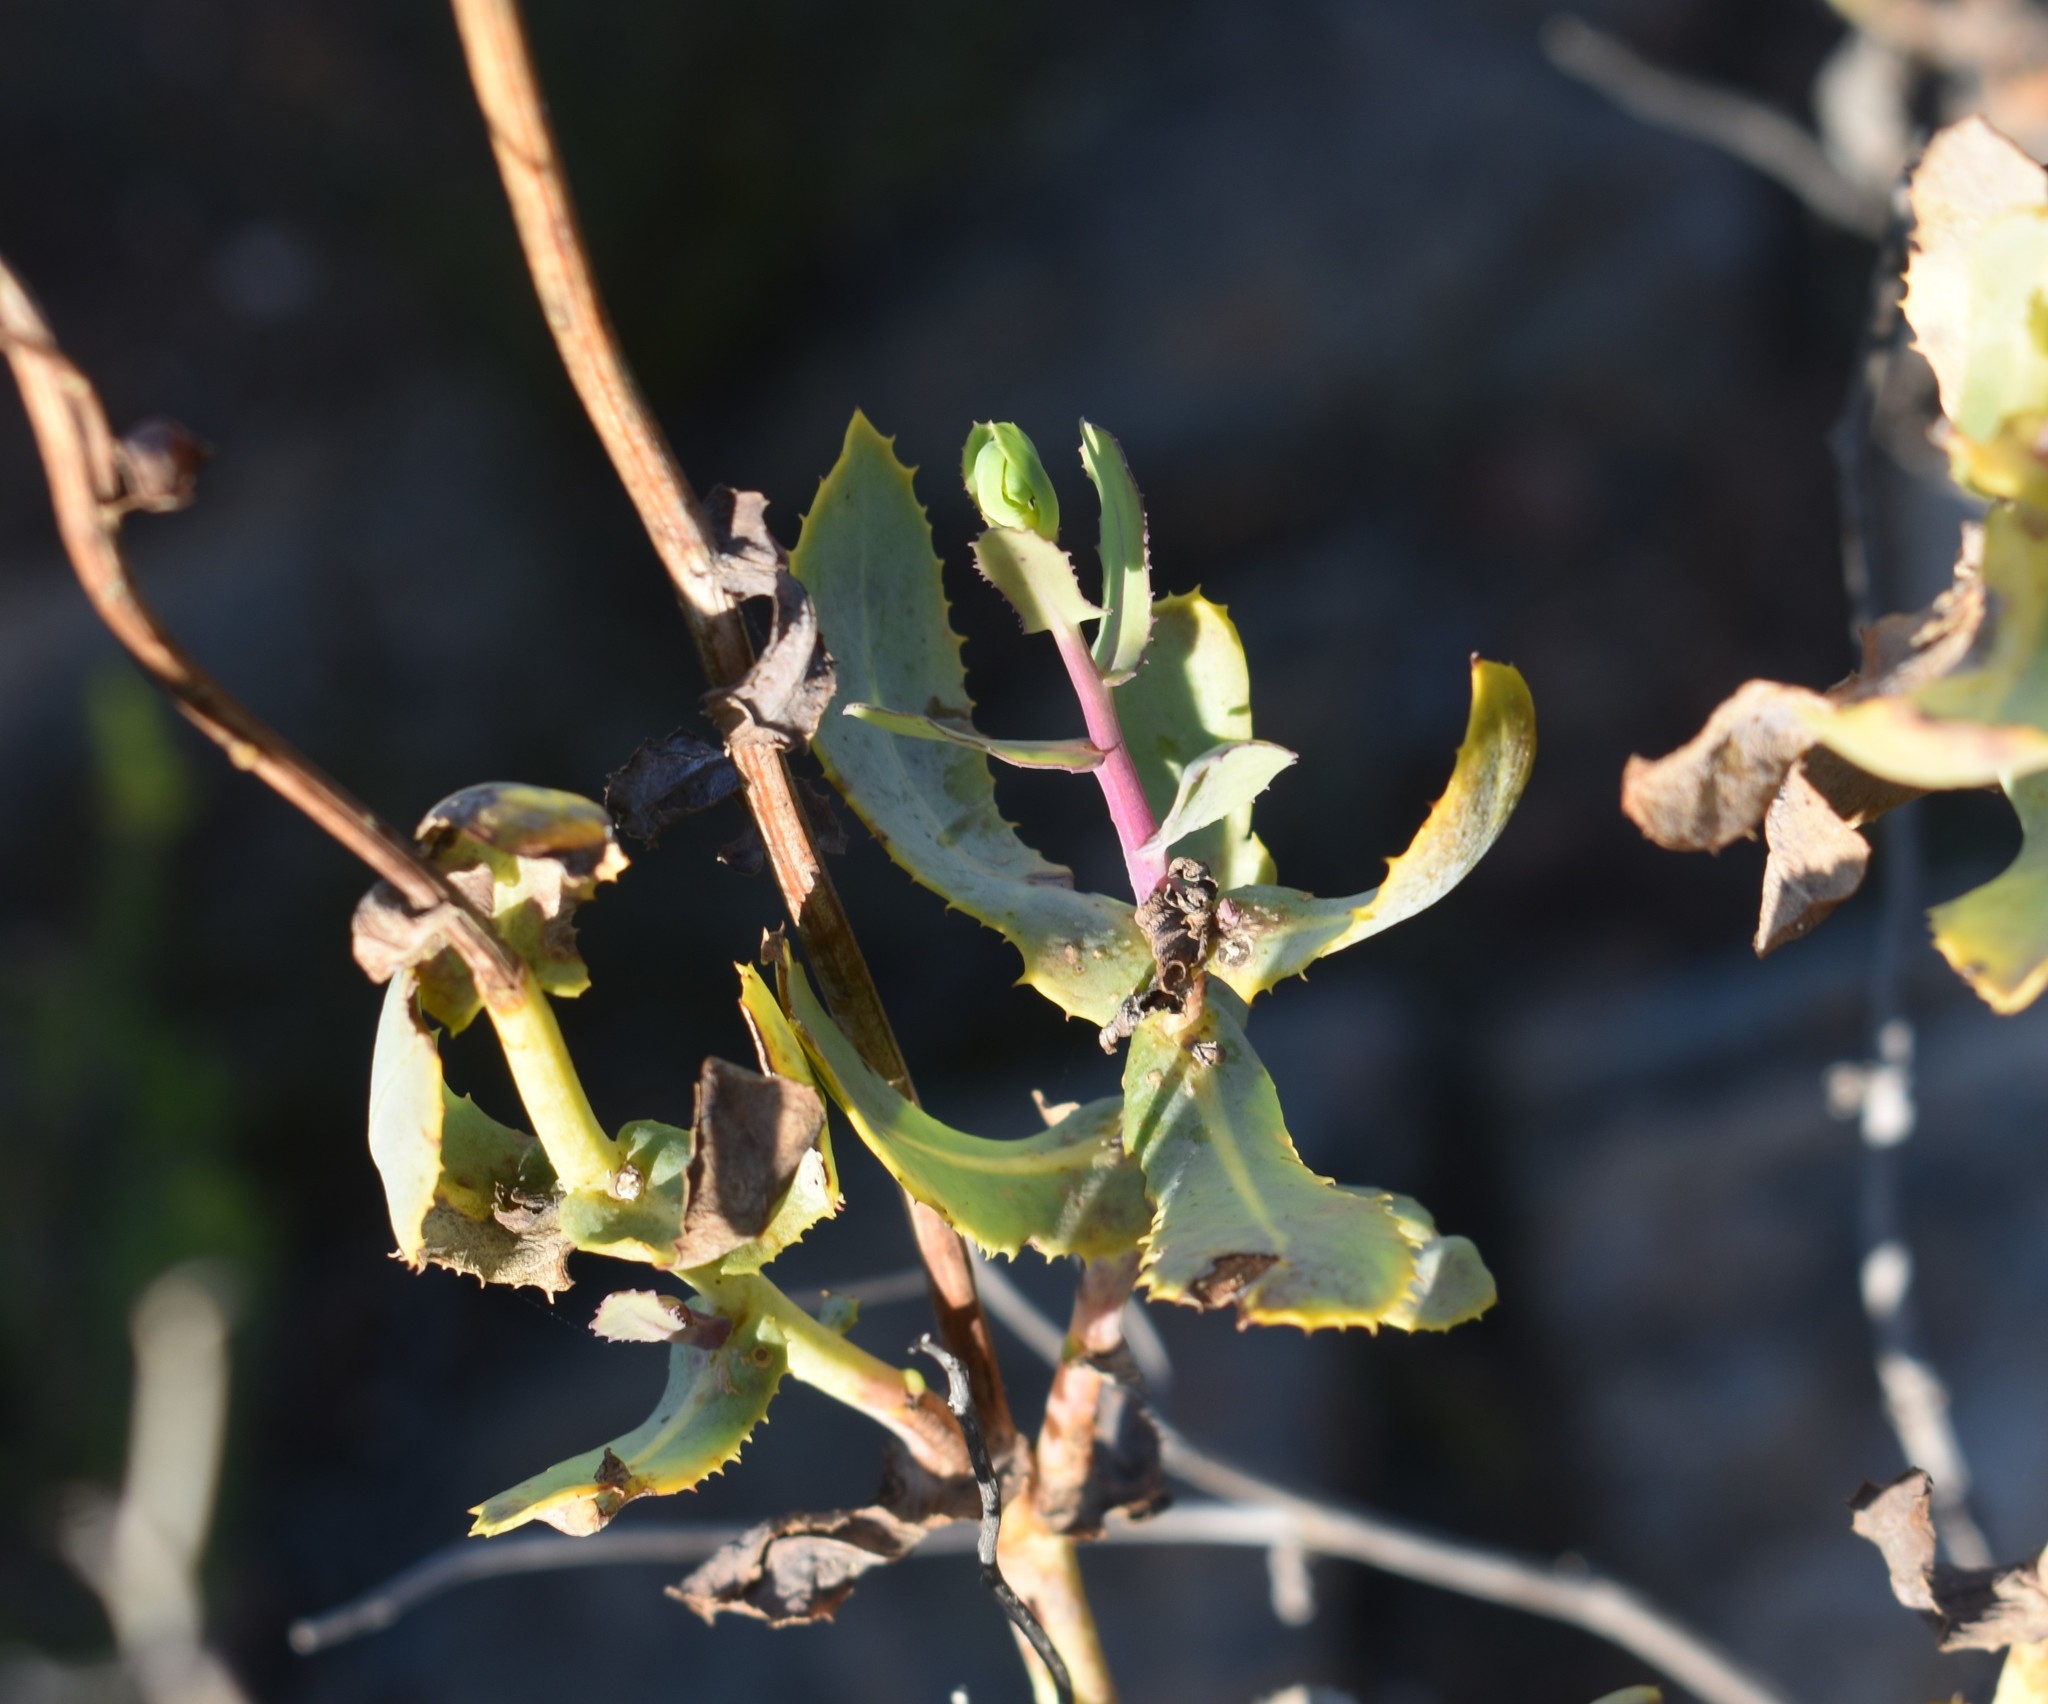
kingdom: Plantae
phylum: Tracheophyta
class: Magnoliopsida
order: Asterales
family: Asteraceae
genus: Othonna
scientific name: Othonna parviflora
